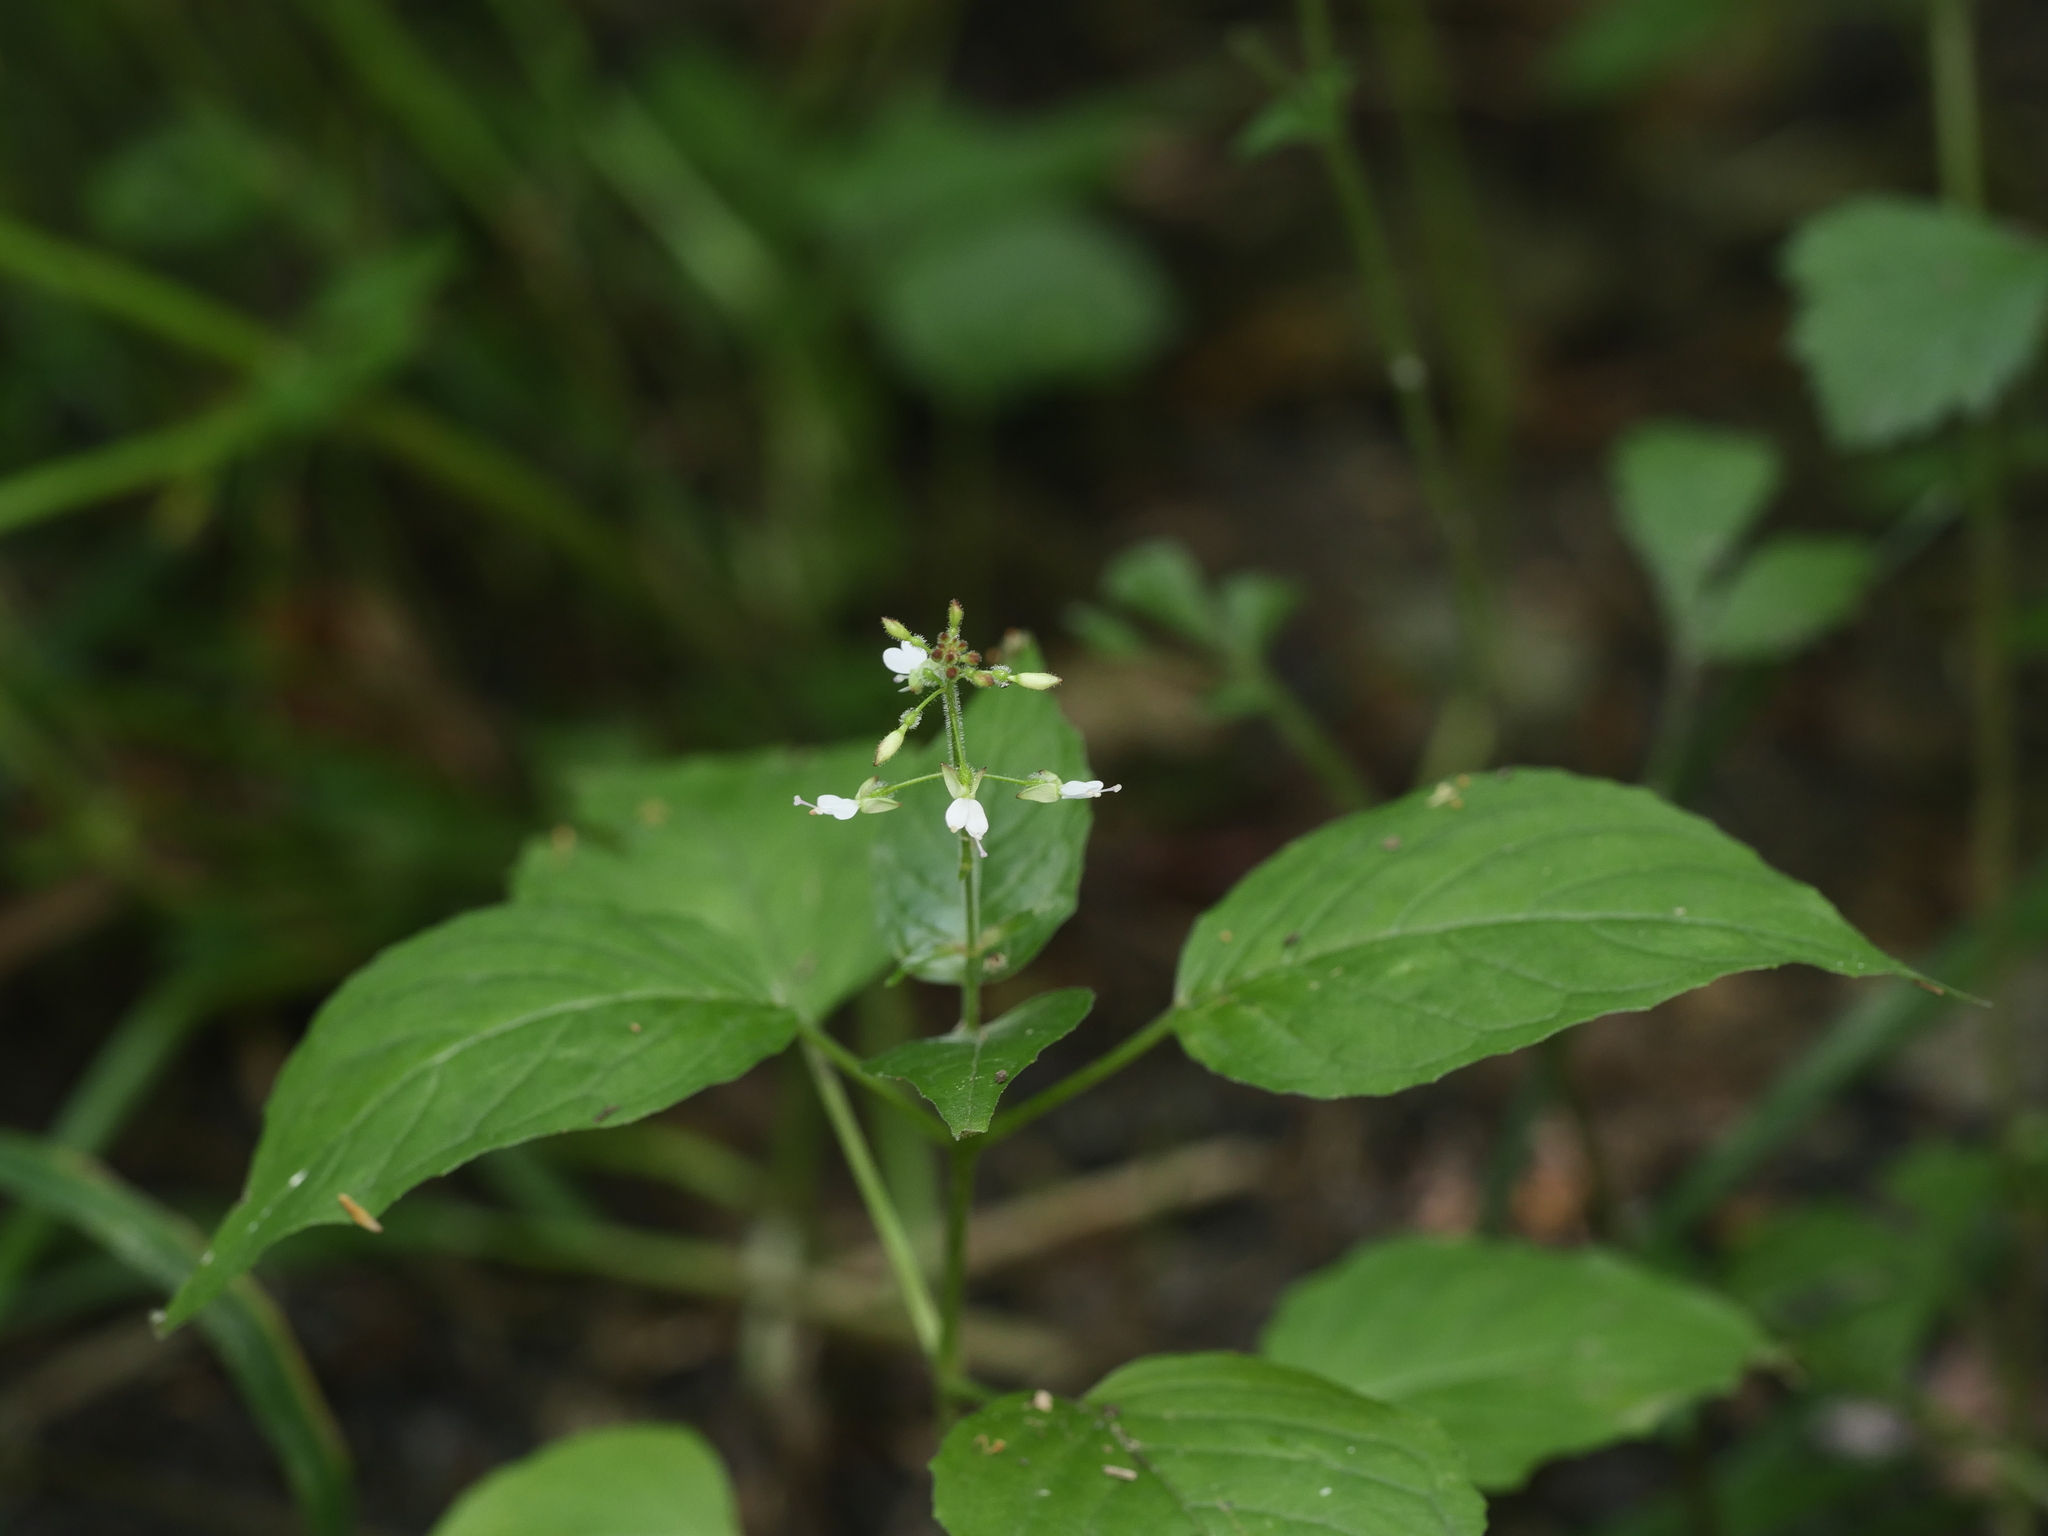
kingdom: Plantae
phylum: Tracheophyta
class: Magnoliopsida
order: Myrtales
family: Onagraceae
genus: Circaea
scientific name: Circaea lutetiana
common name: Enchanter's-nightshade
